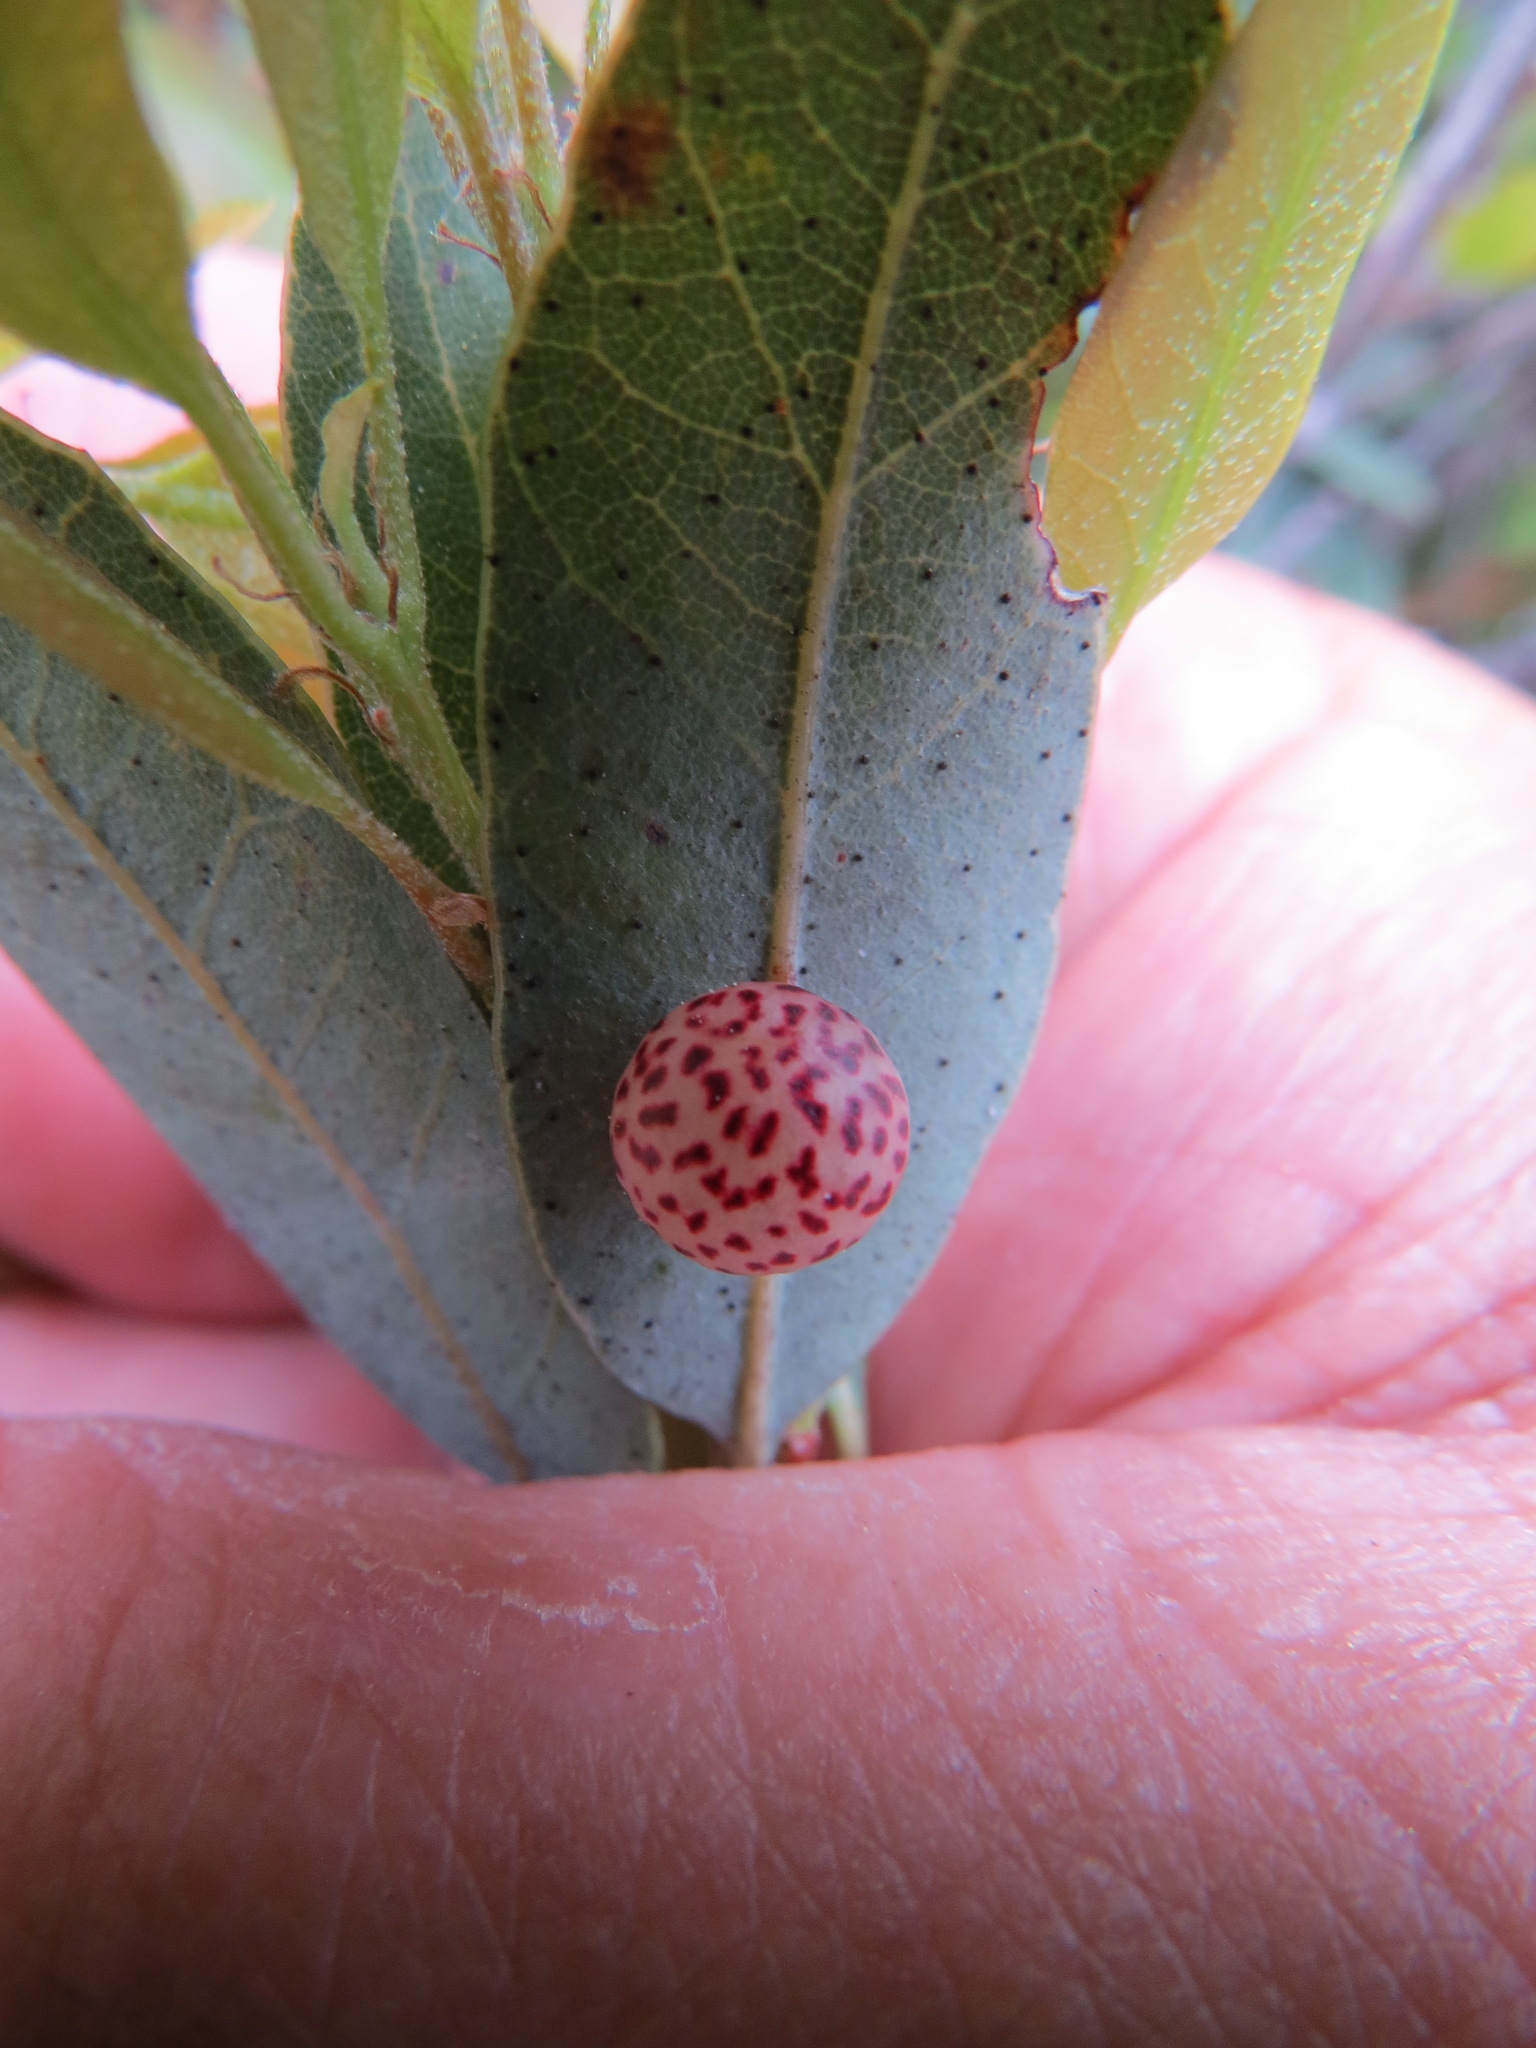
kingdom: Animalia
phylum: Arthropoda
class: Insecta
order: Hymenoptera
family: Cynipidae
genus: Andricus
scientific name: Andricus
